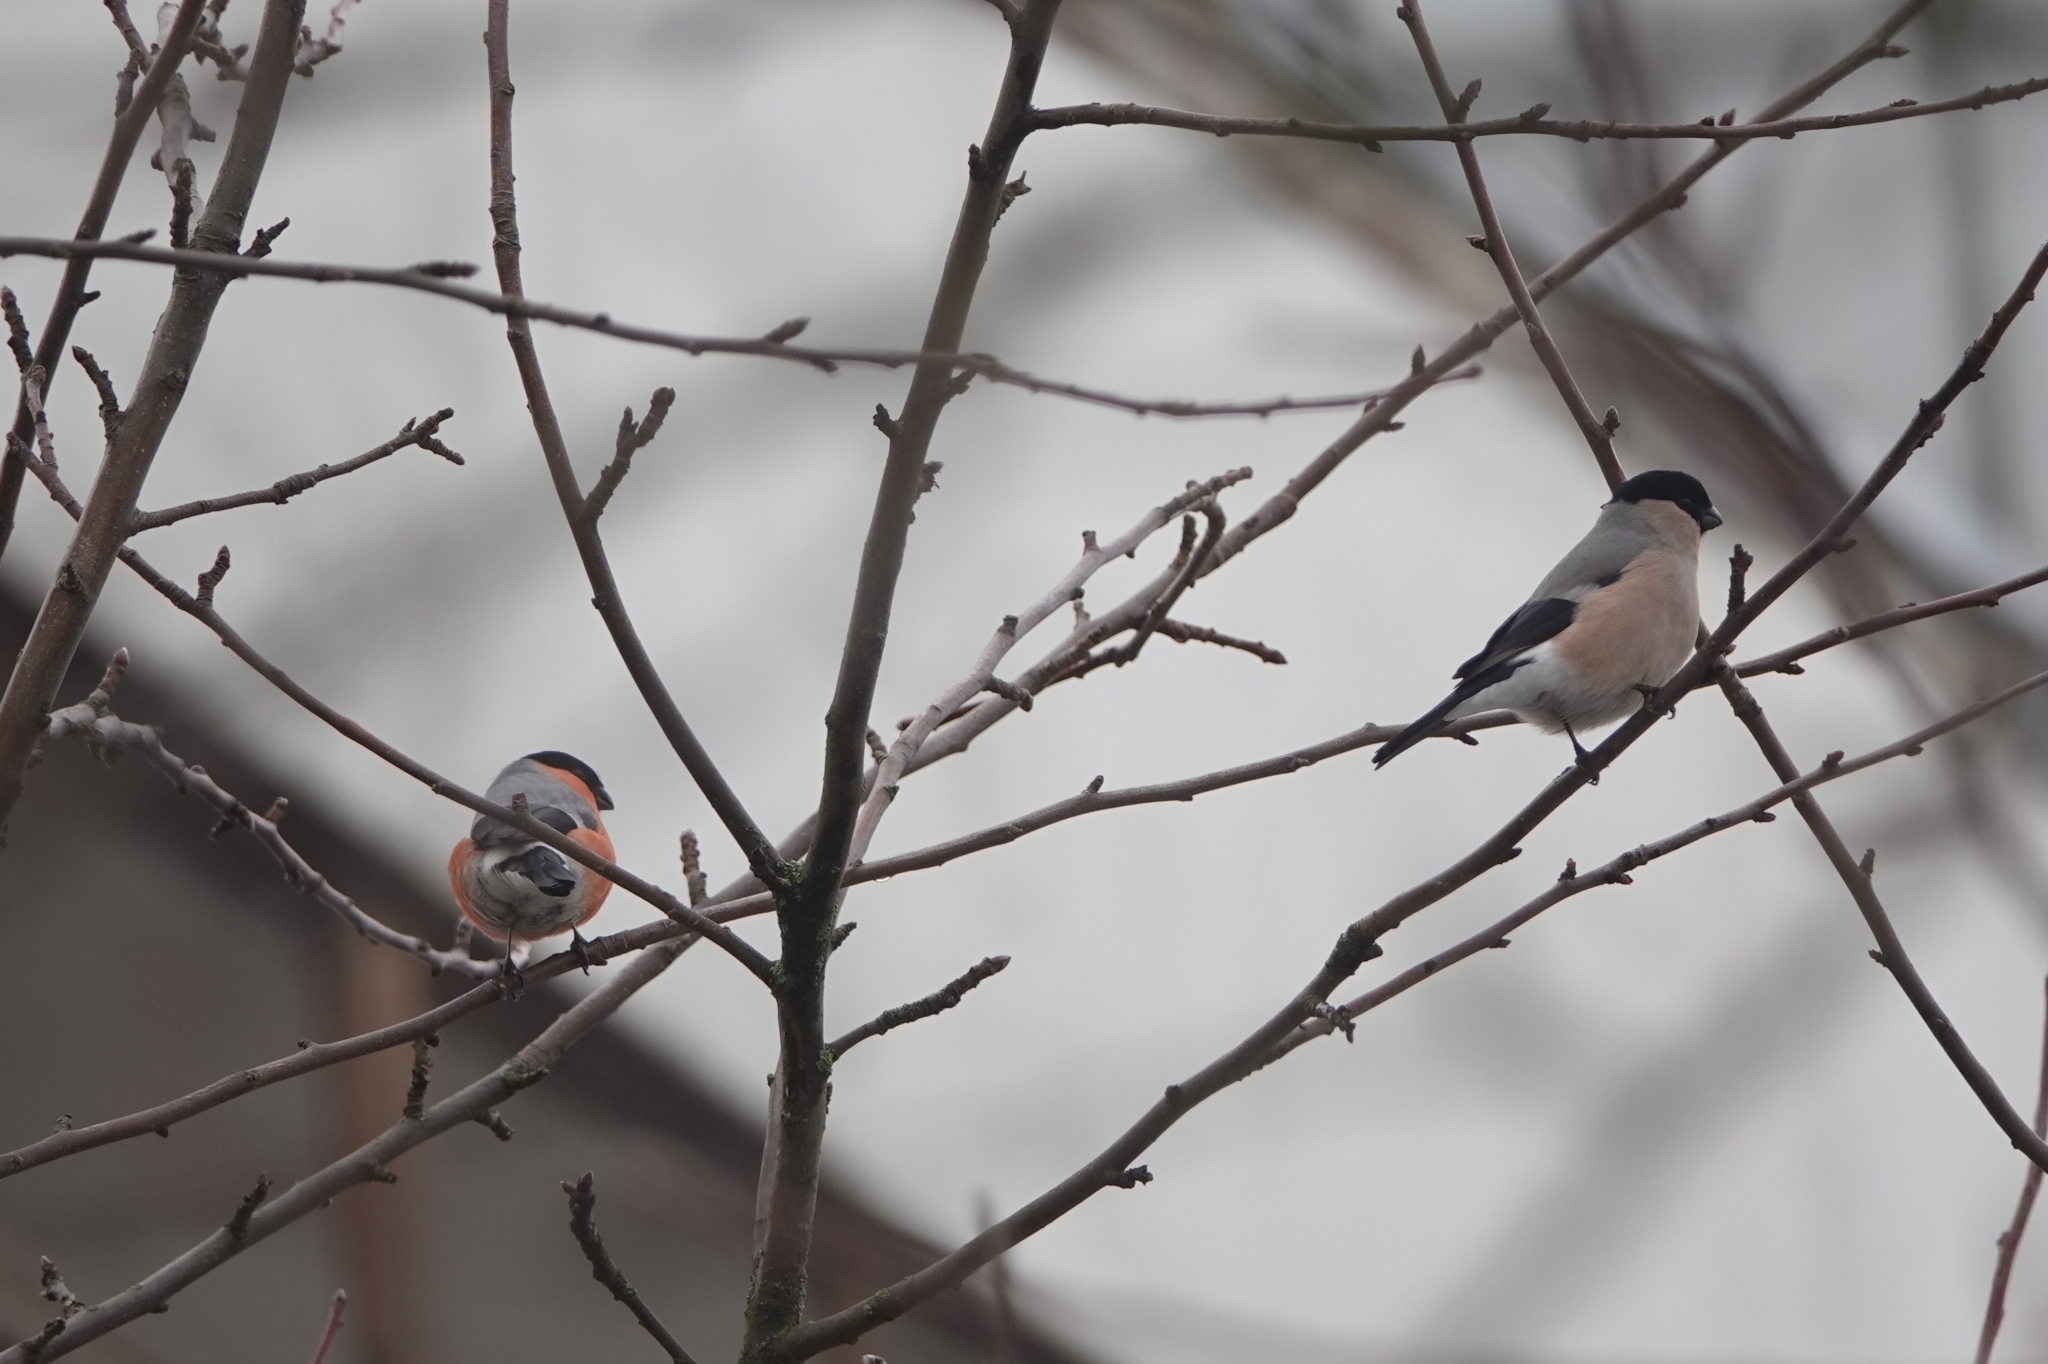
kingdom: Animalia
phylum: Chordata
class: Aves
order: Passeriformes
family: Fringillidae
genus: Pyrrhula
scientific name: Pyrrhula pyrrhula
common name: Eurasian bullfinch
